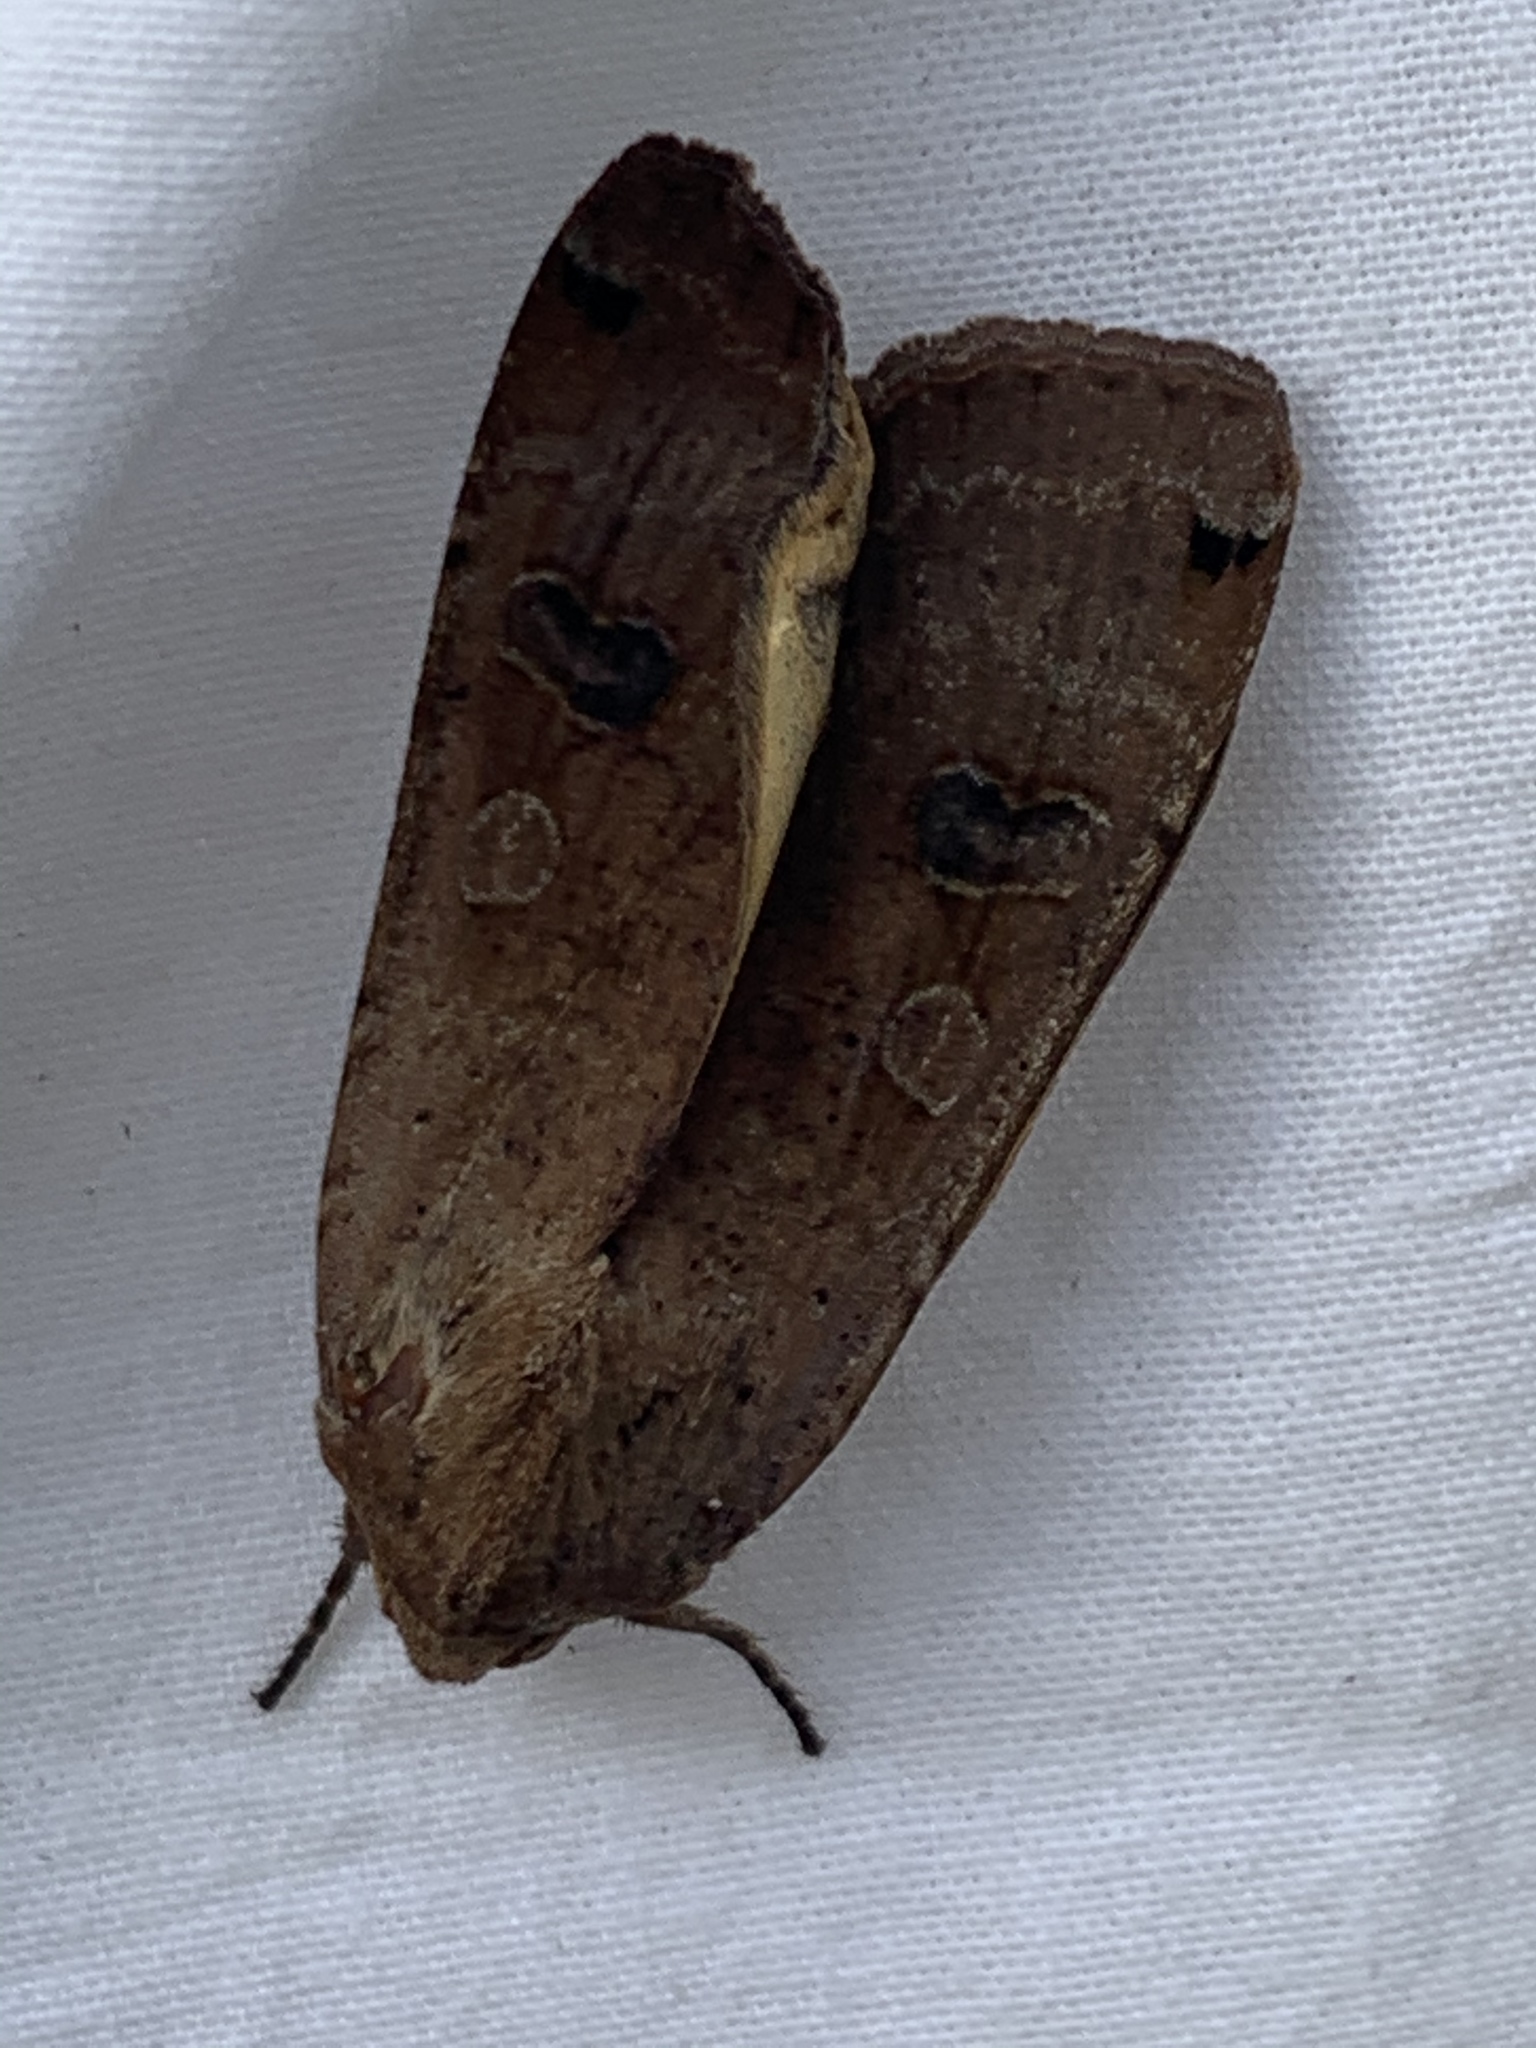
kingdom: Animalia
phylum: Arthropoda
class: Insecta
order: Lepidoptera
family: Noctuidae
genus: Noctua
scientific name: Noctua pronuba
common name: Large yellow underwing
